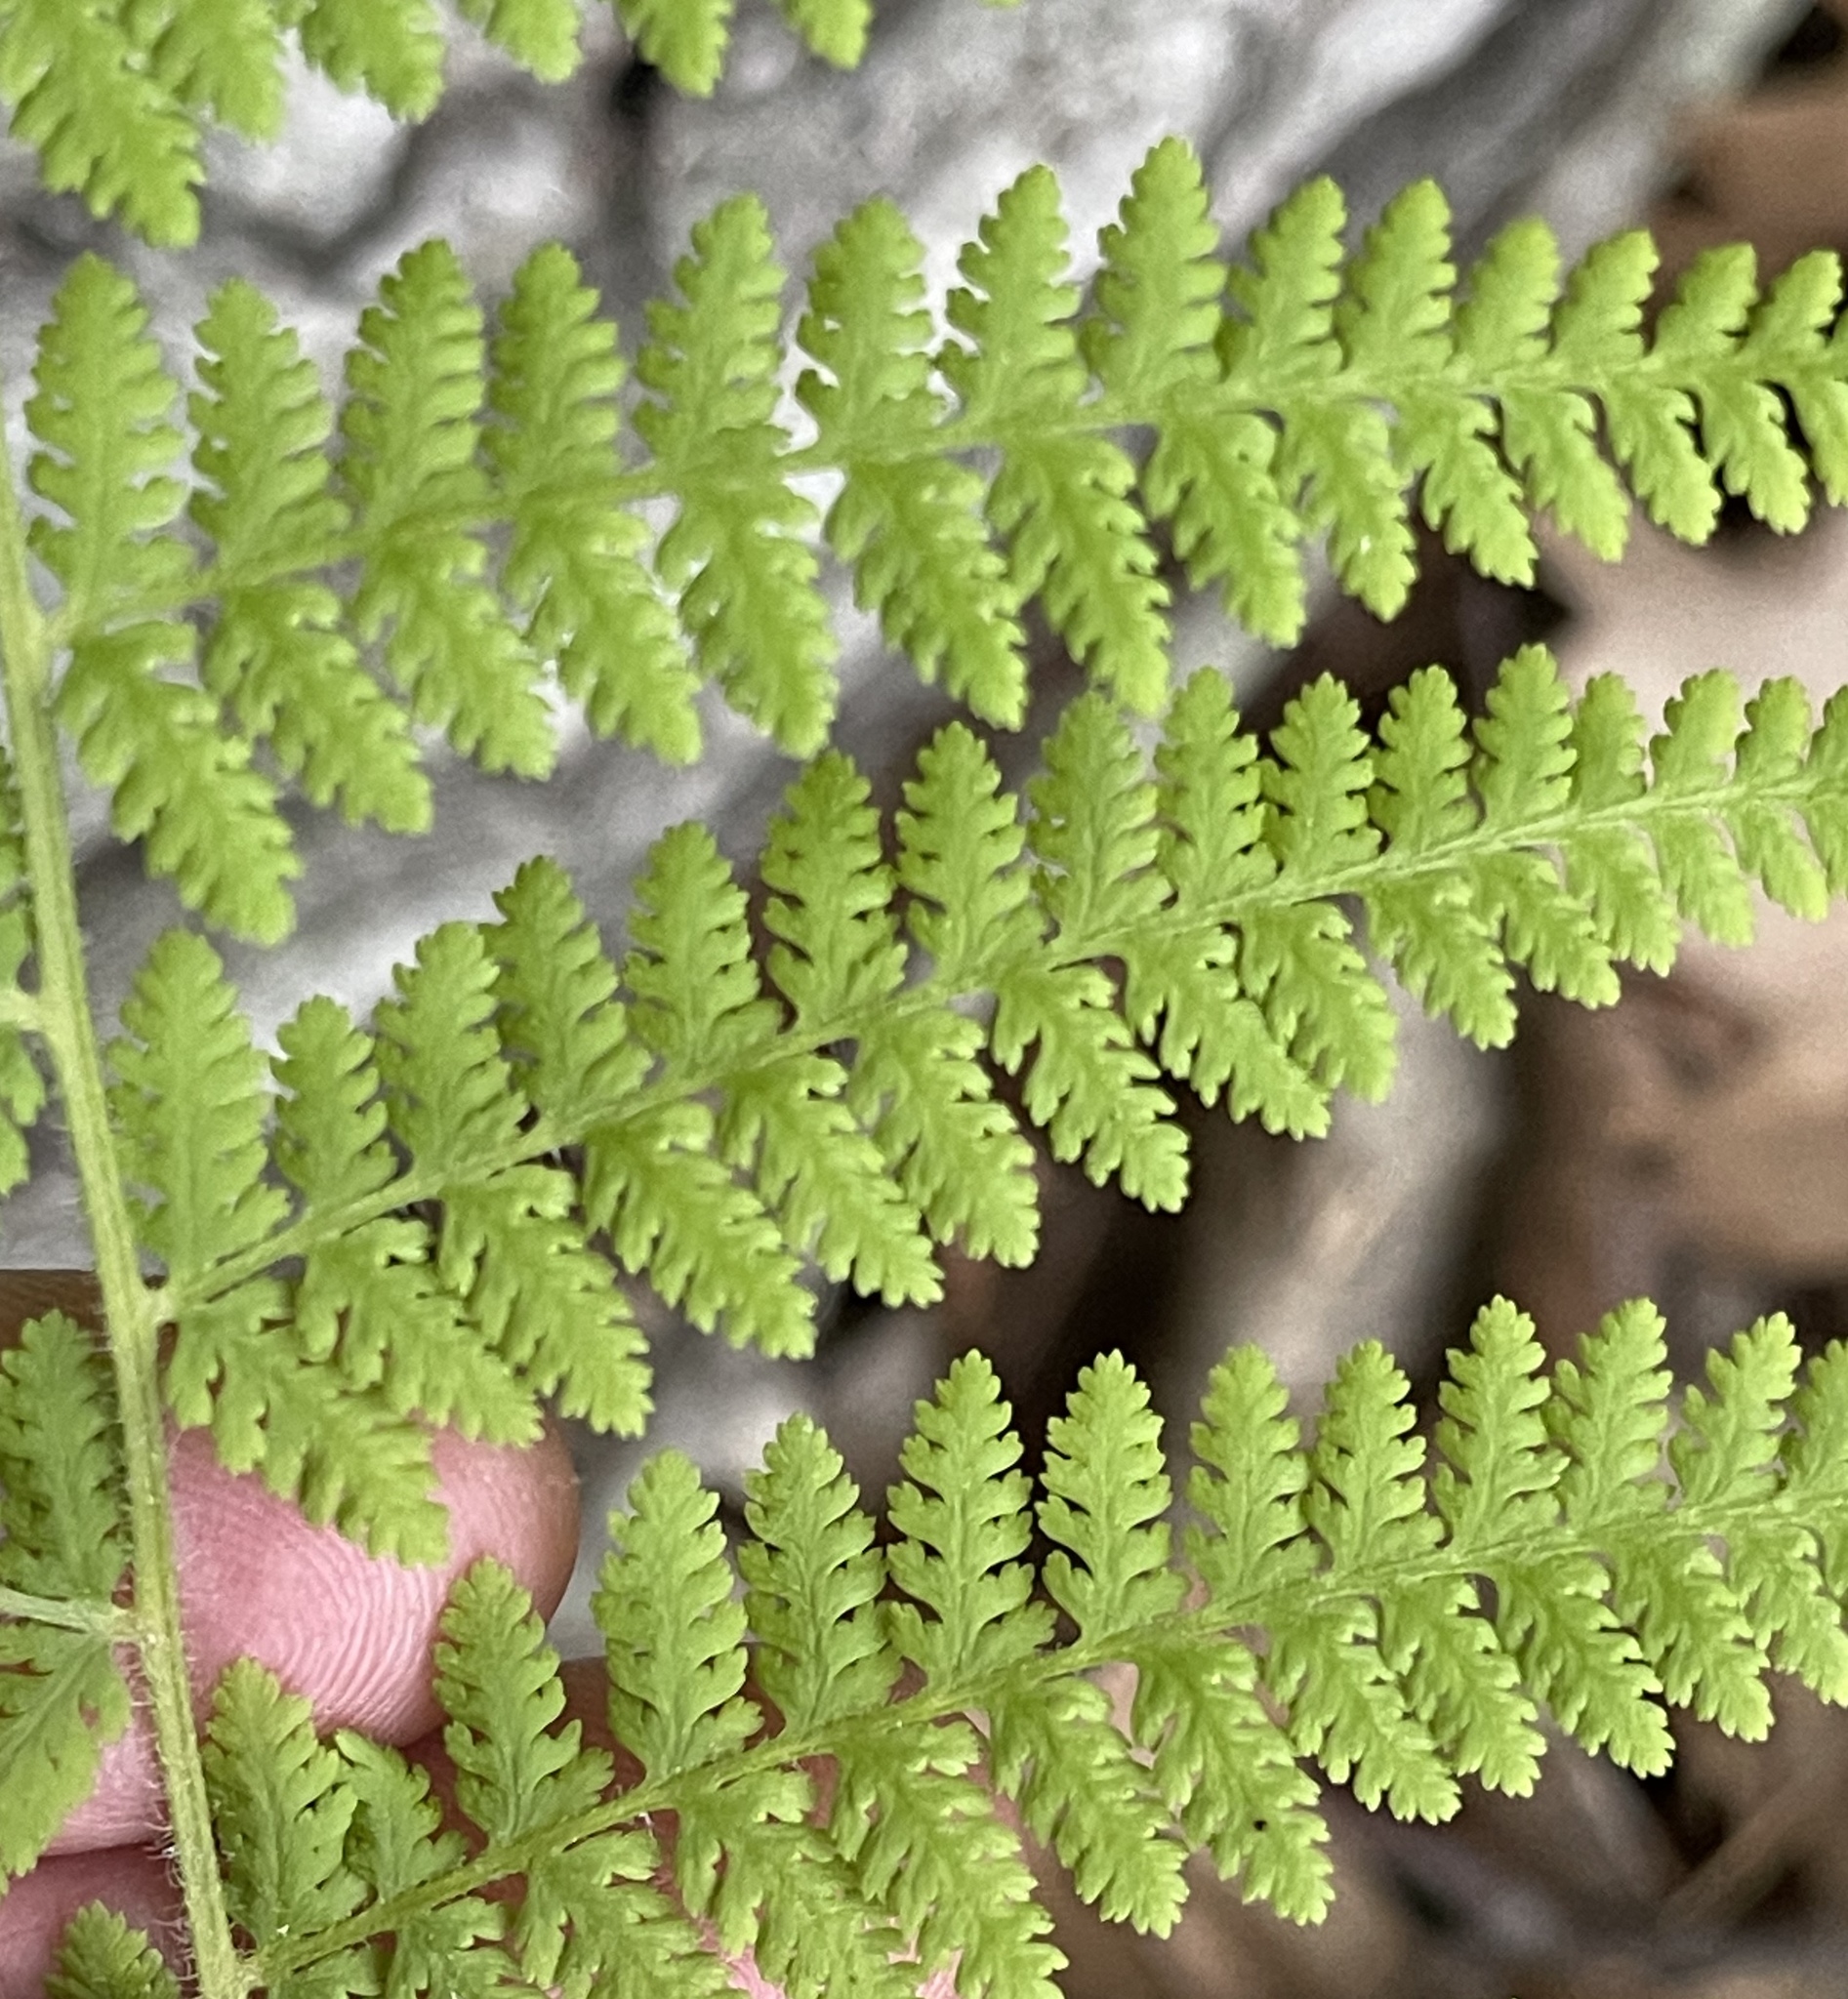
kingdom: Plantae
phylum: Tracheophyta
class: Polypodiopsida
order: Polypodiales
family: Dennstaedtiaceae
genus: Sitobolium
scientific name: Sitobolium punctilobum
